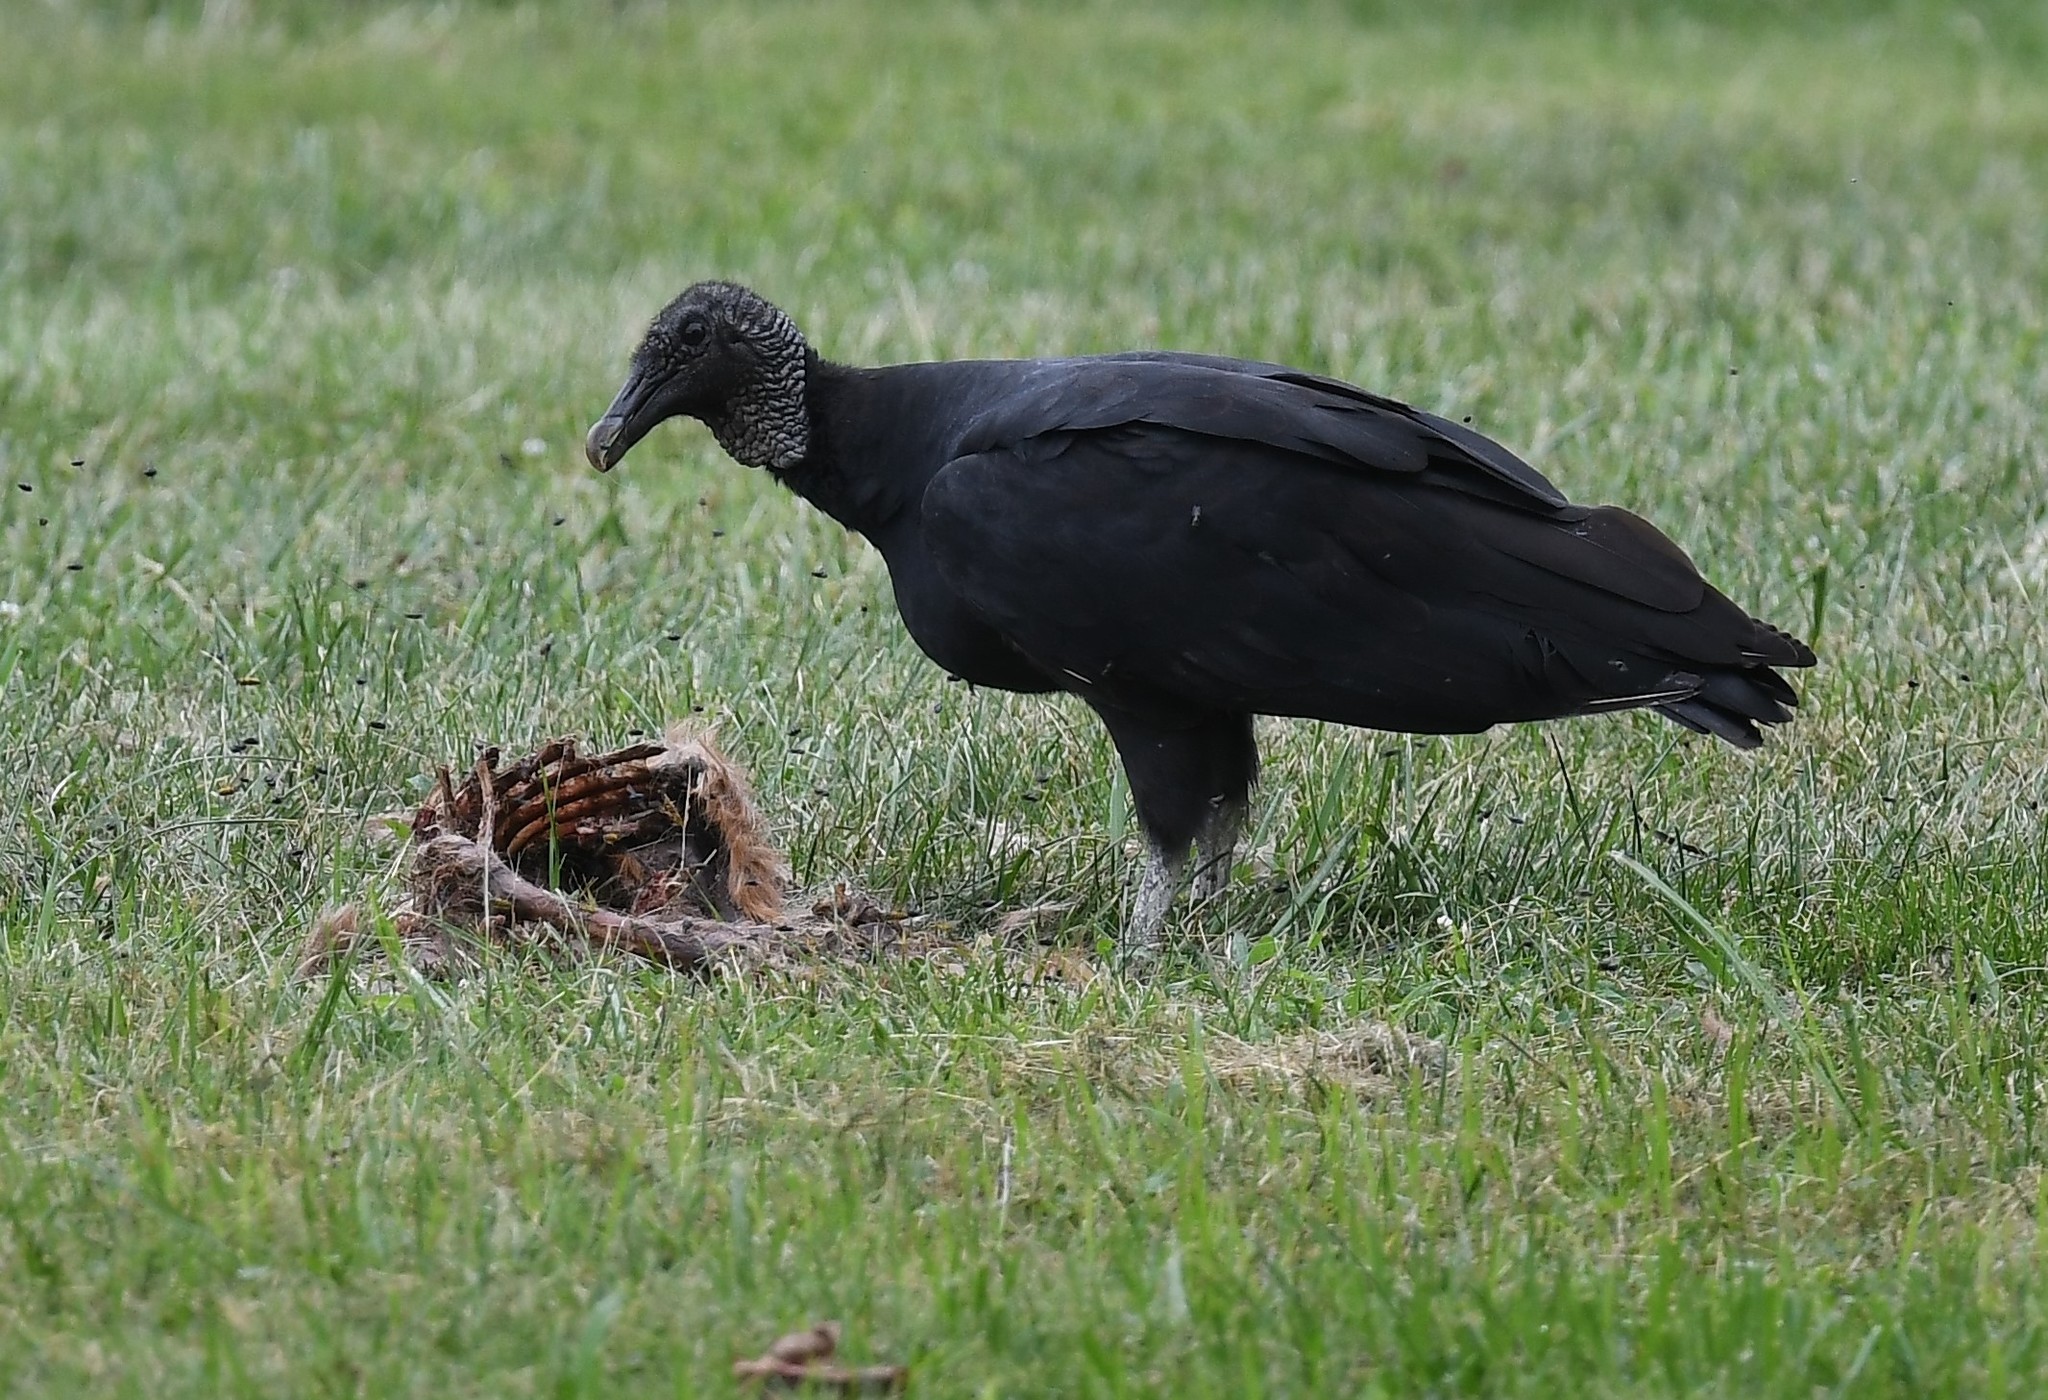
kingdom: Animalia
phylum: Chordata
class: Aves
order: Accipitriformes
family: Cathartidae
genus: Coragyps
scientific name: Coragyps atratus
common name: Black vulture
